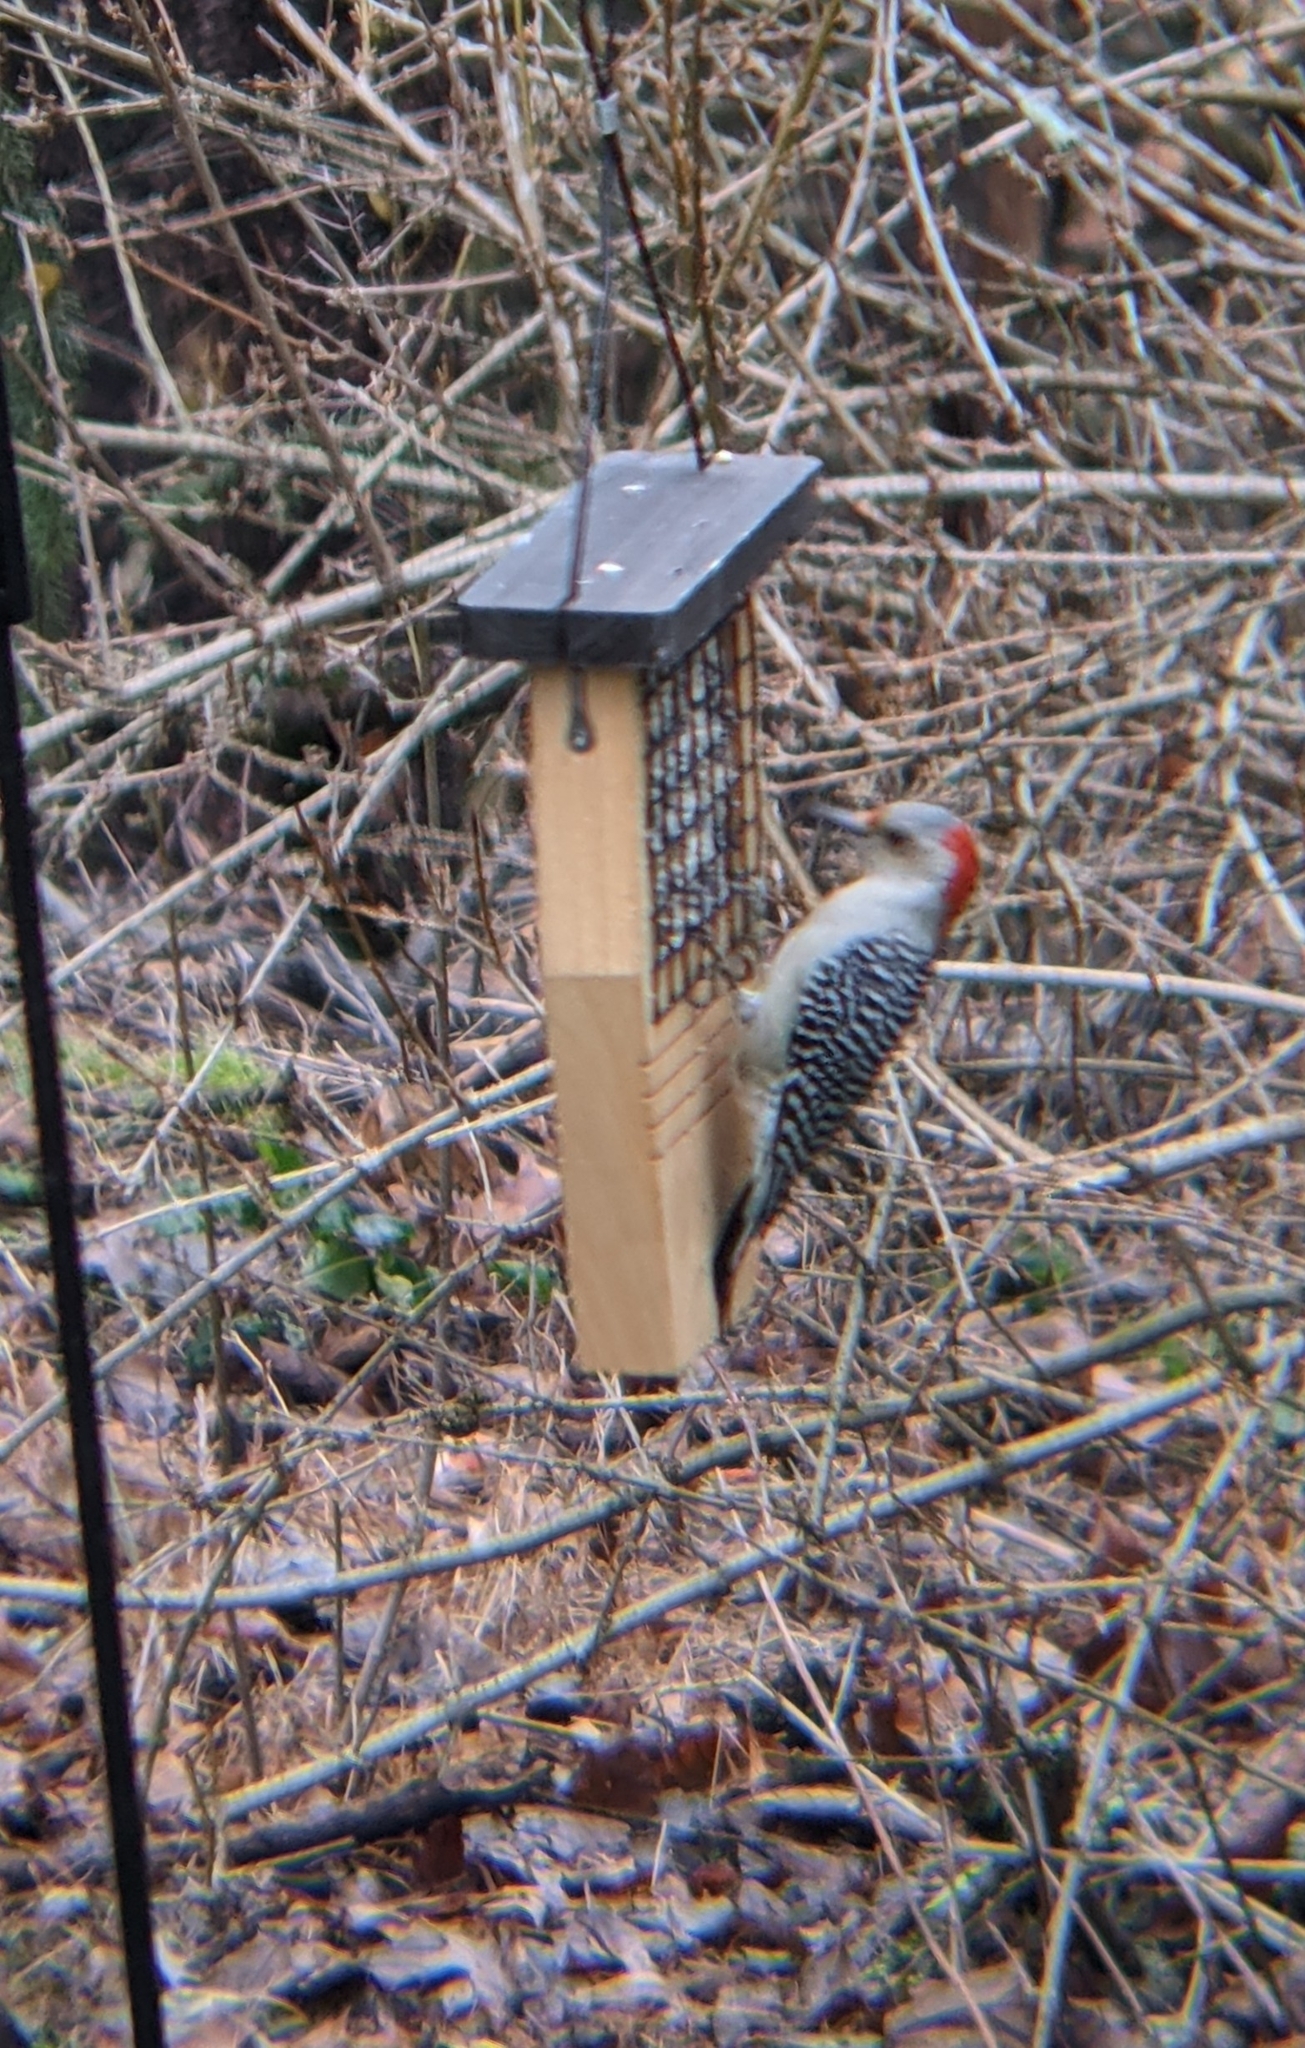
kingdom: Animalia
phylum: Chordata
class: Aves
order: Piciformes
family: Picidae
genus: Melanerpes
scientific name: Melanerpes carolinus
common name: Red-bellied woodpecker
